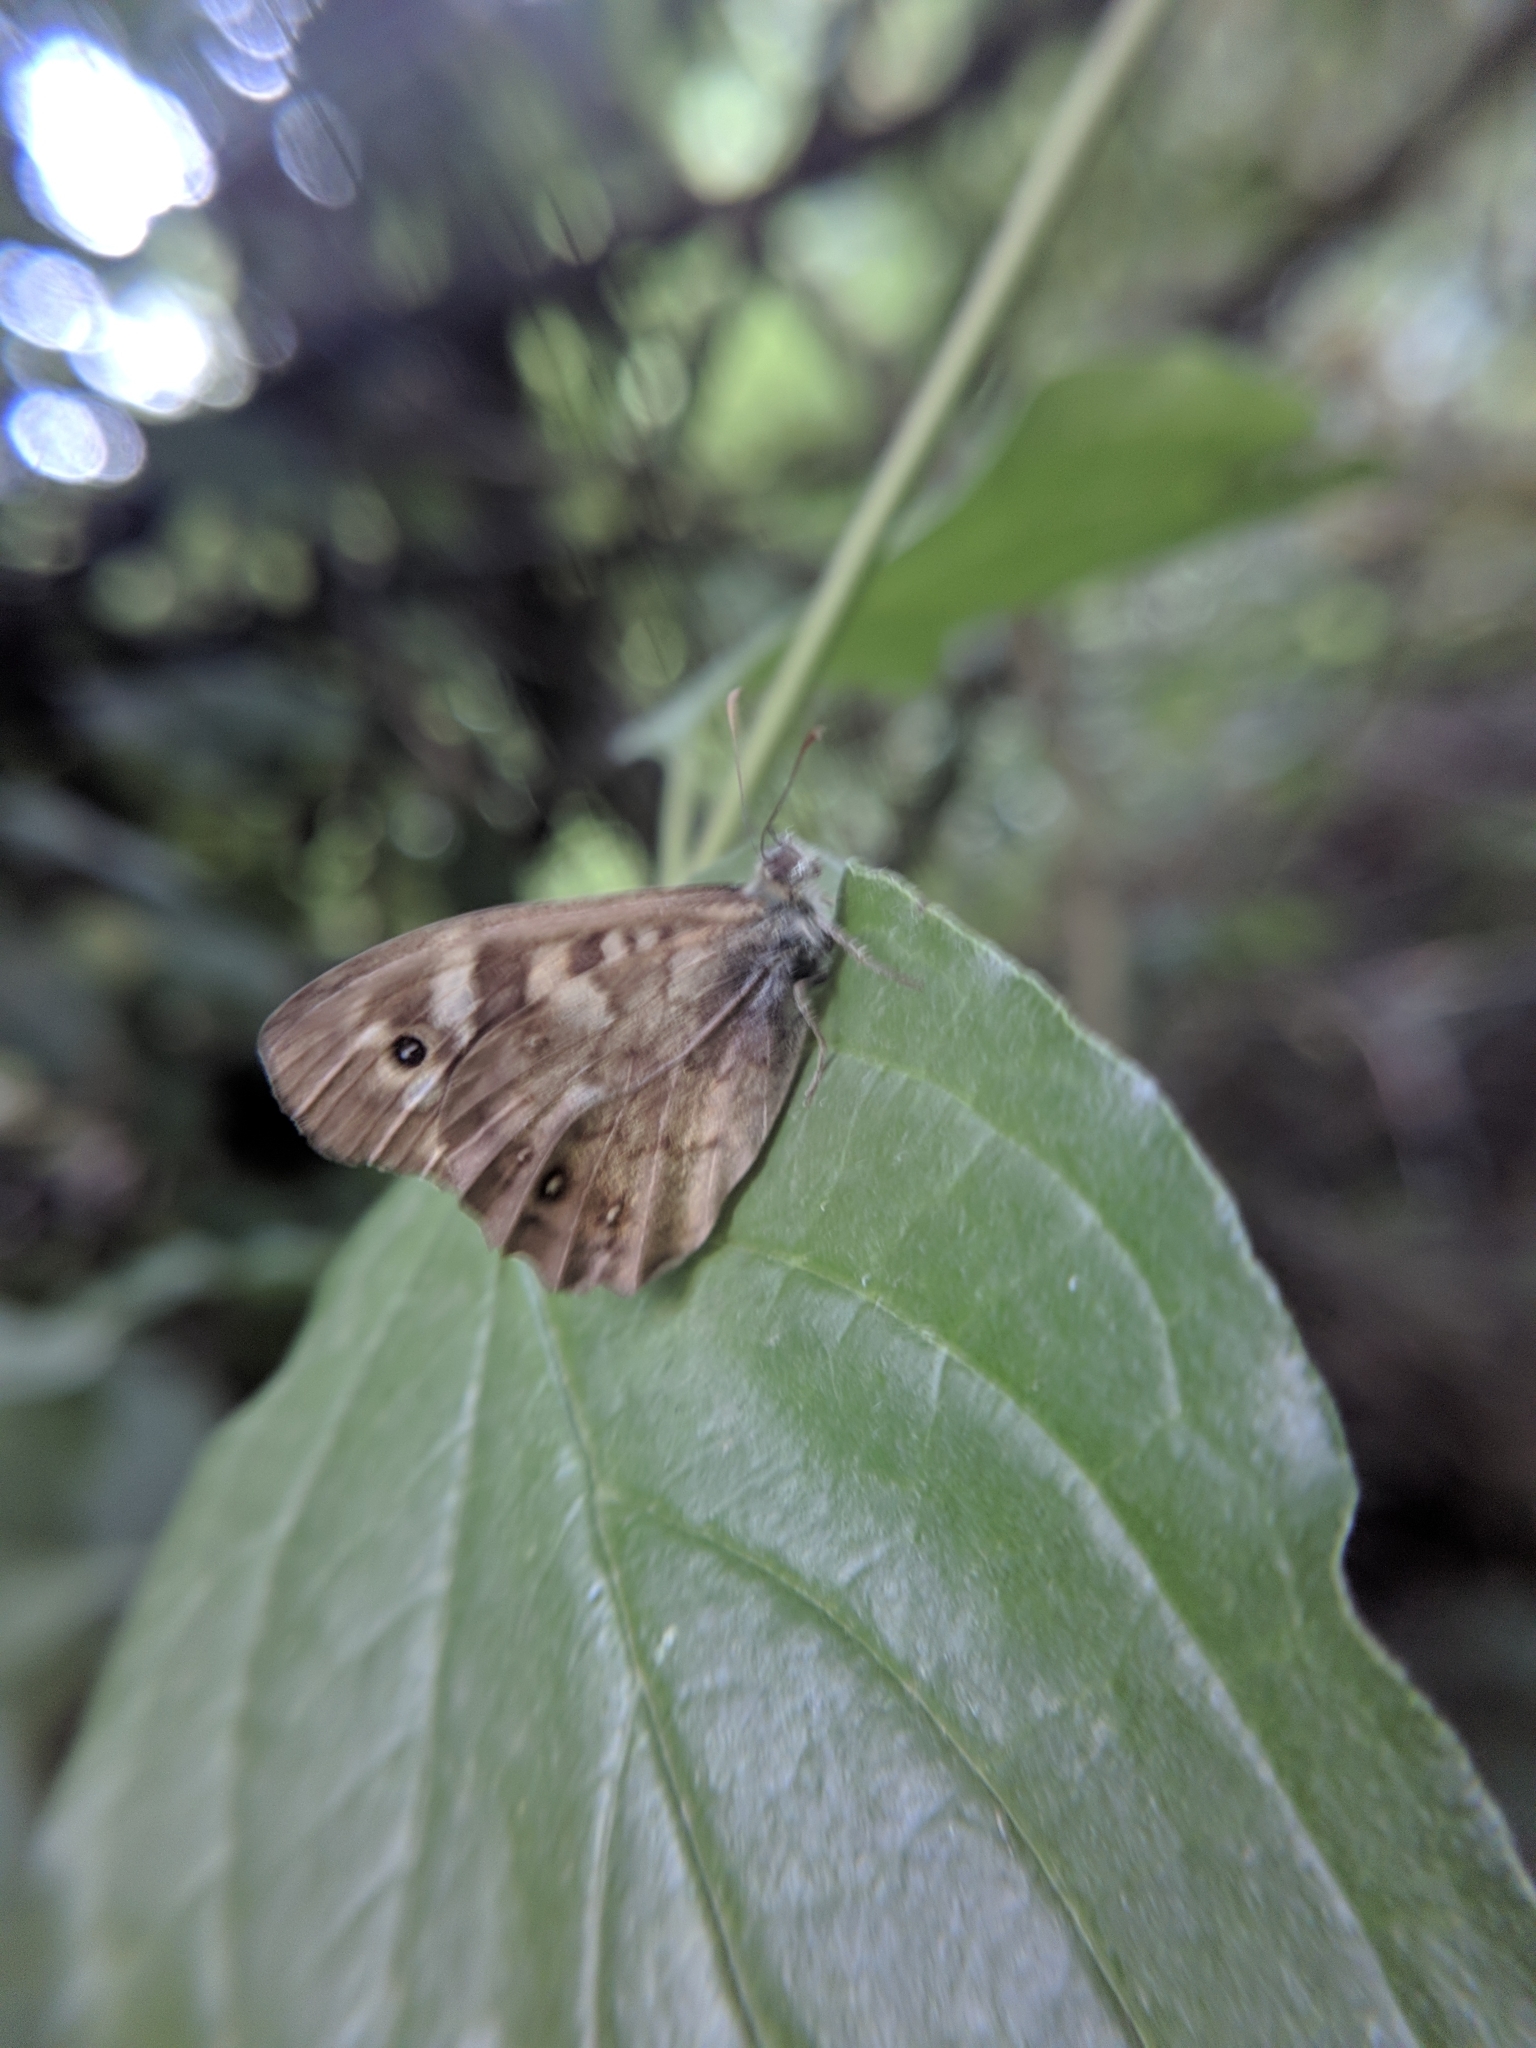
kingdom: Animalia
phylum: Arthropoda
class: Insecta
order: Lepidoptera
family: Nymphalidae
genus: Pararge
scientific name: Pararge aegeria
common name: Speckled wood
